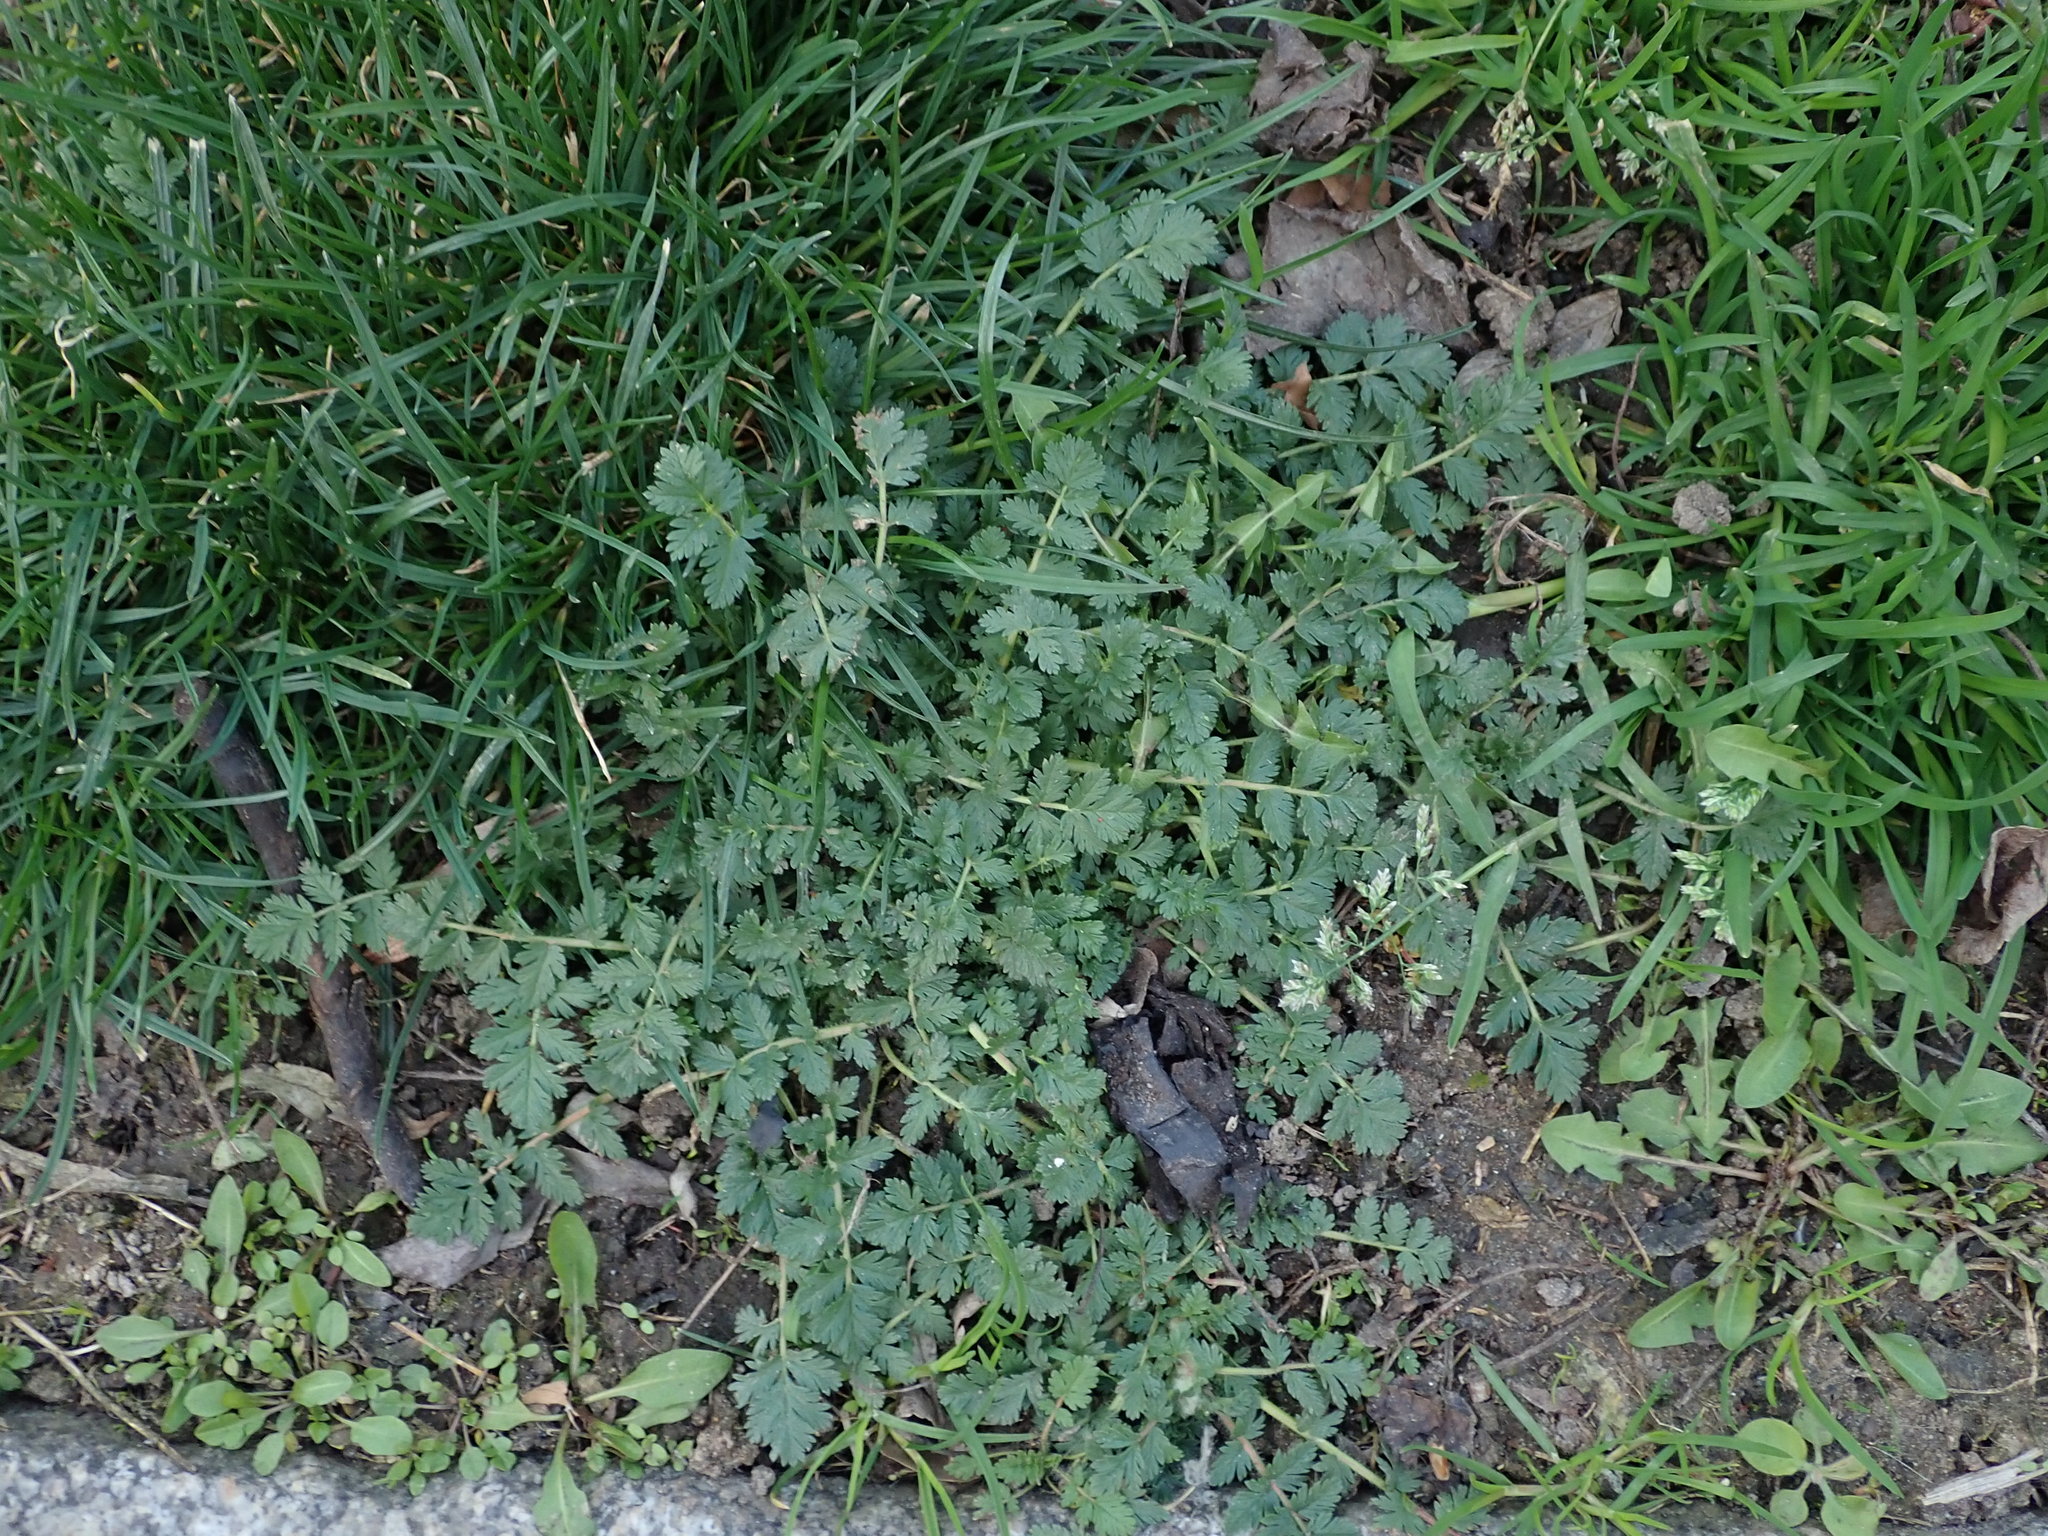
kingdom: Plantae
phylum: Tracheophyta
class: Magnoliopsida
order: Geraniales
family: Geraniaceae
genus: Erodium
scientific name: Erodium cicutarium
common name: Common stork's-bill
